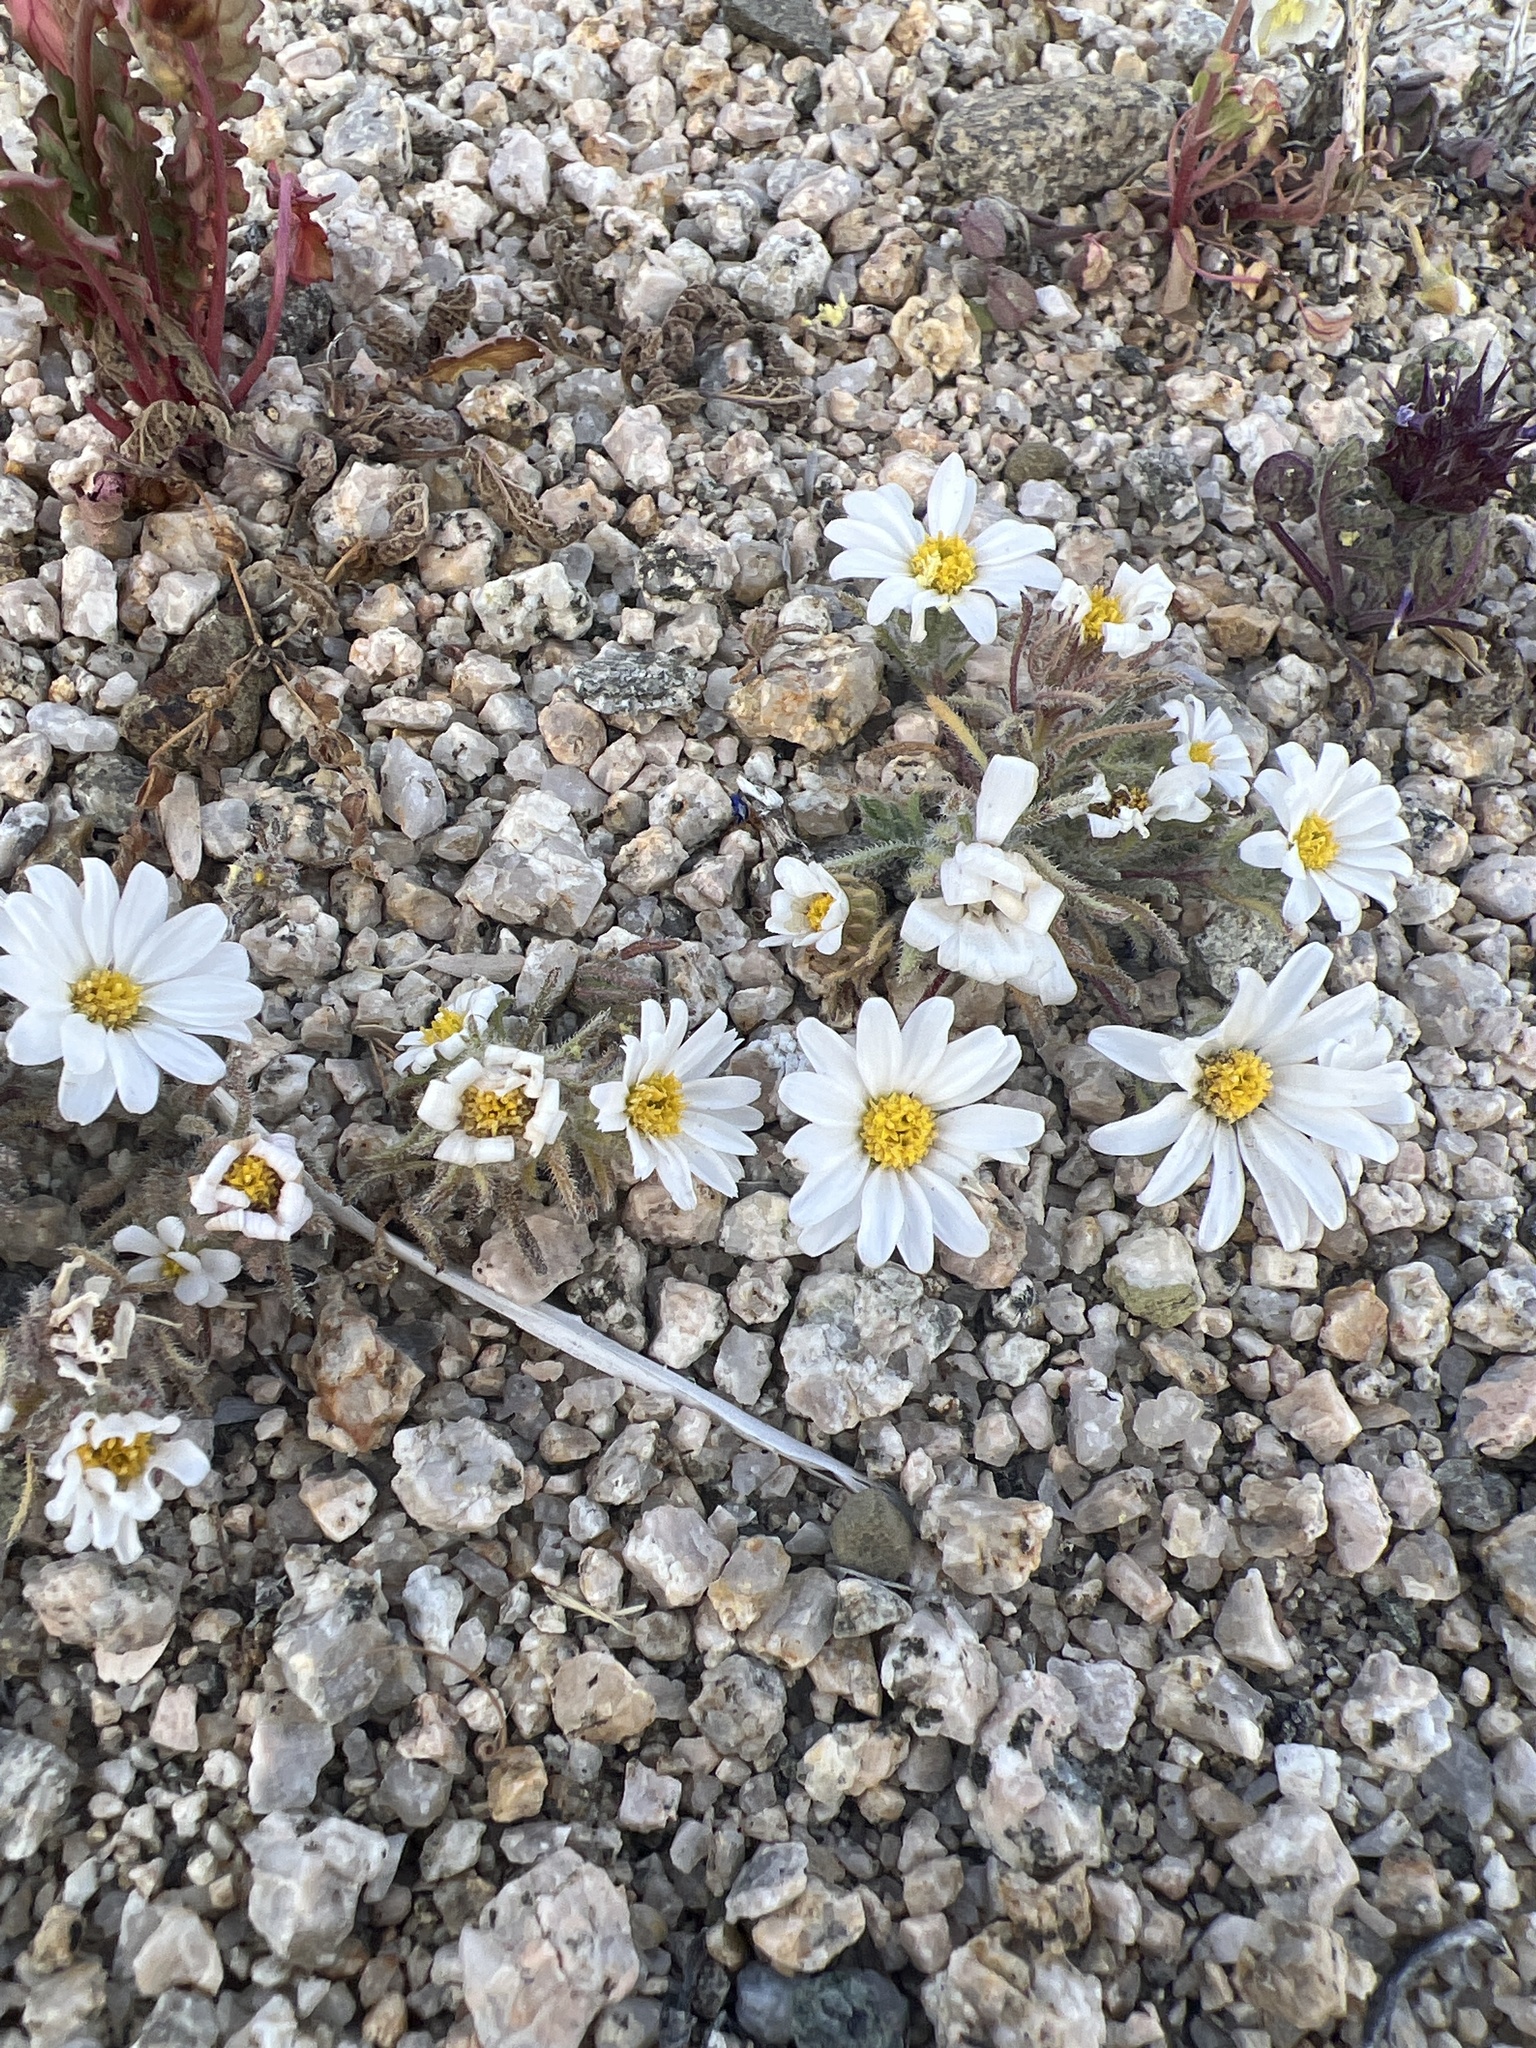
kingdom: Plantae
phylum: Tracheophyta
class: Magnoliopsida
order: Asterales
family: Asteraceae
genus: Monoptilon
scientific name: Monoptilon bellioides
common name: Bristly desertstar
